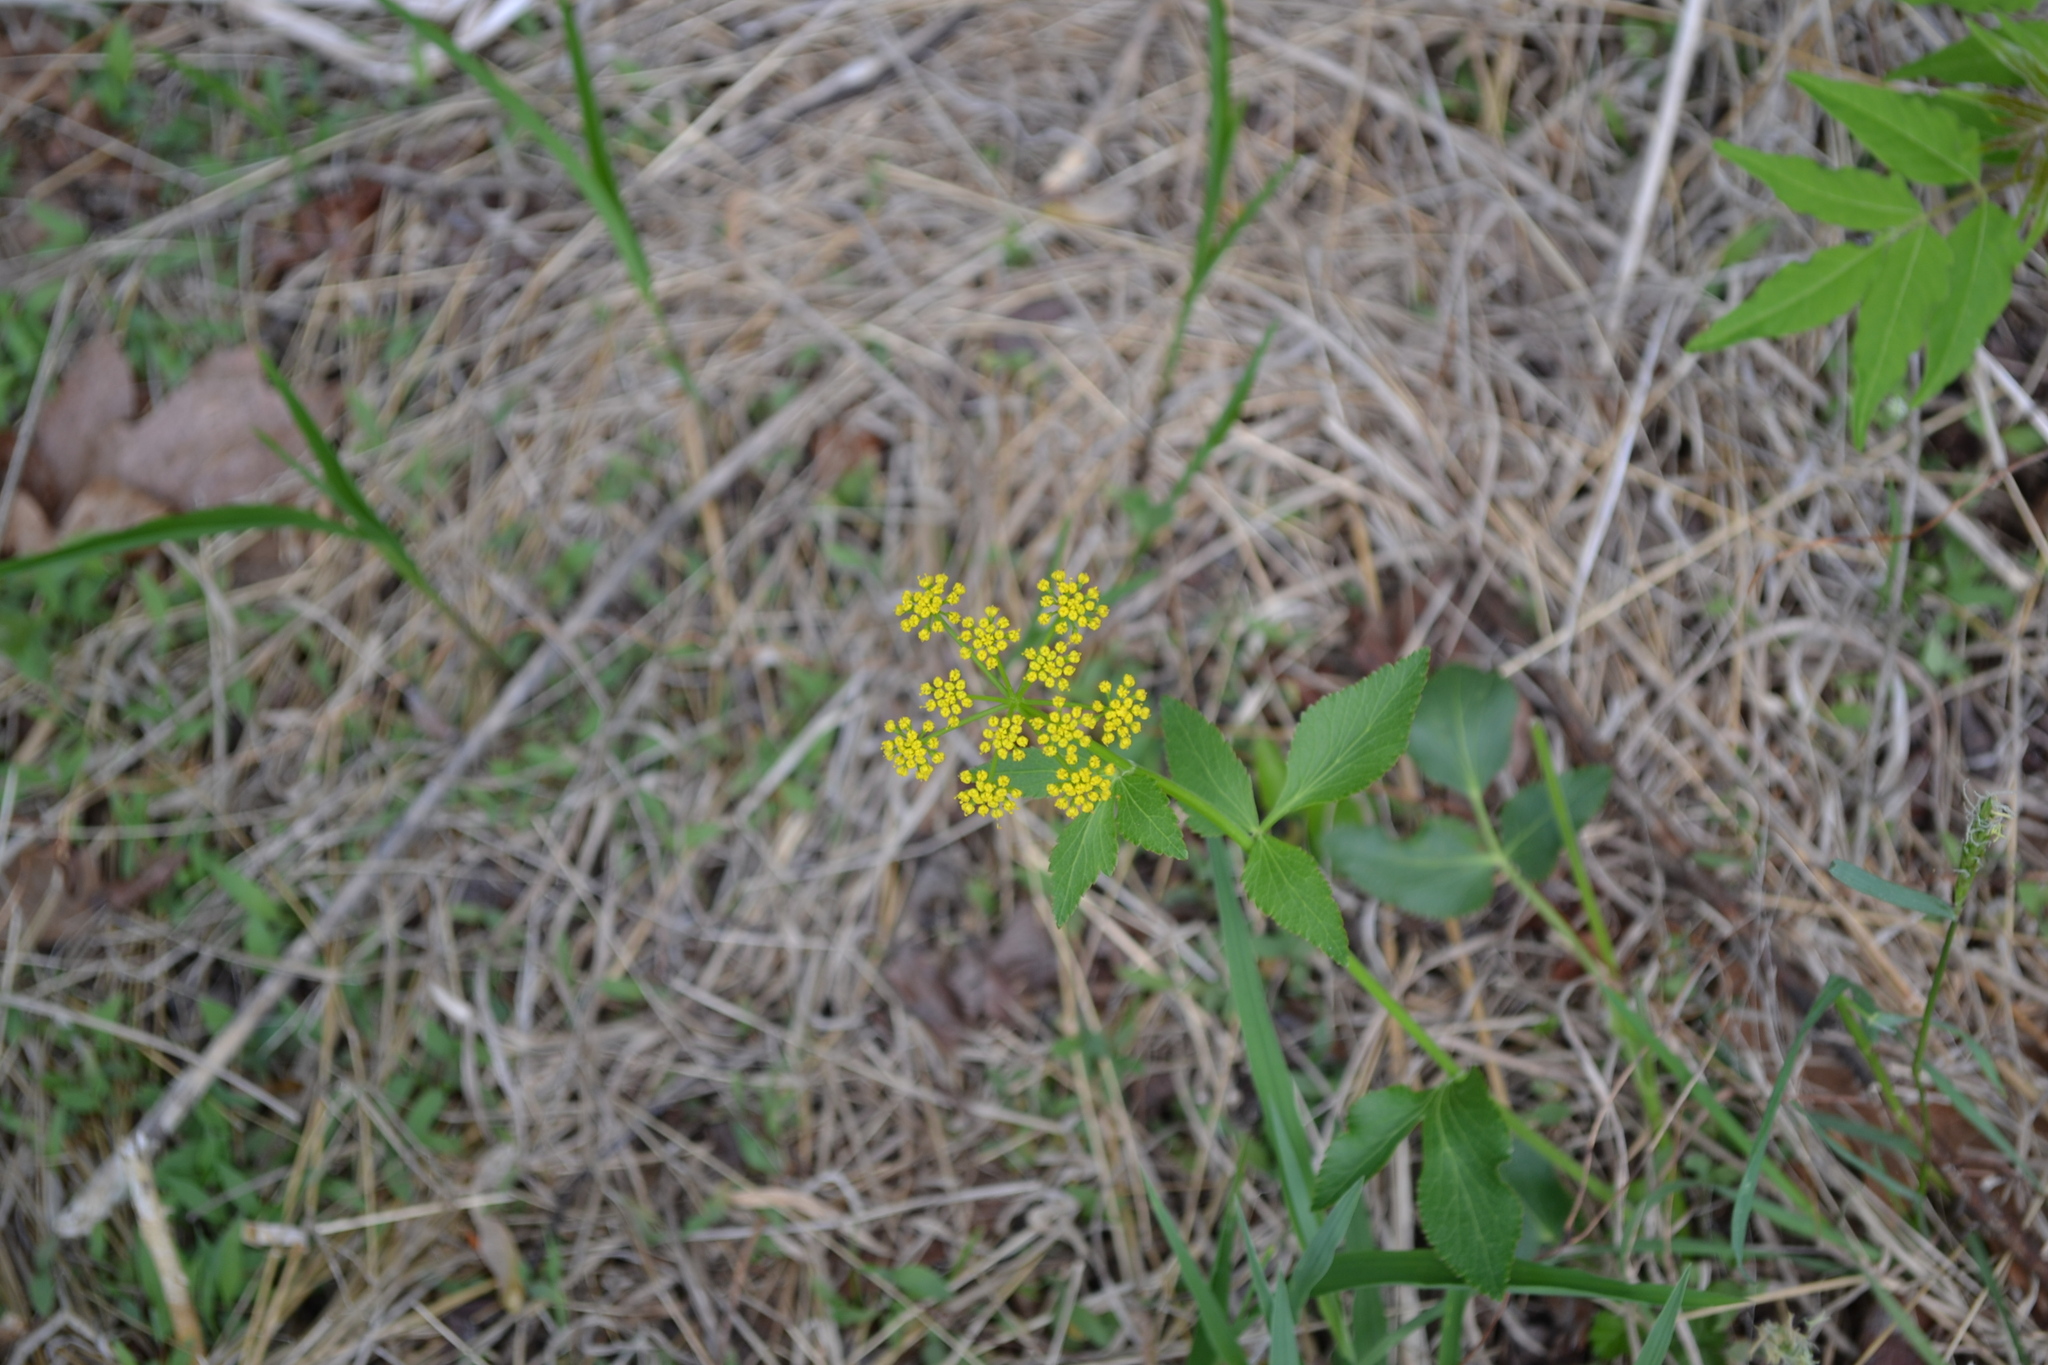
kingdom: Plantae
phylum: Tracheophyta
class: Magnoliopsida
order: Apiales
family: Apiaceae
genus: Zizia
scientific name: Zizia aurea
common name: Golden alexanders
